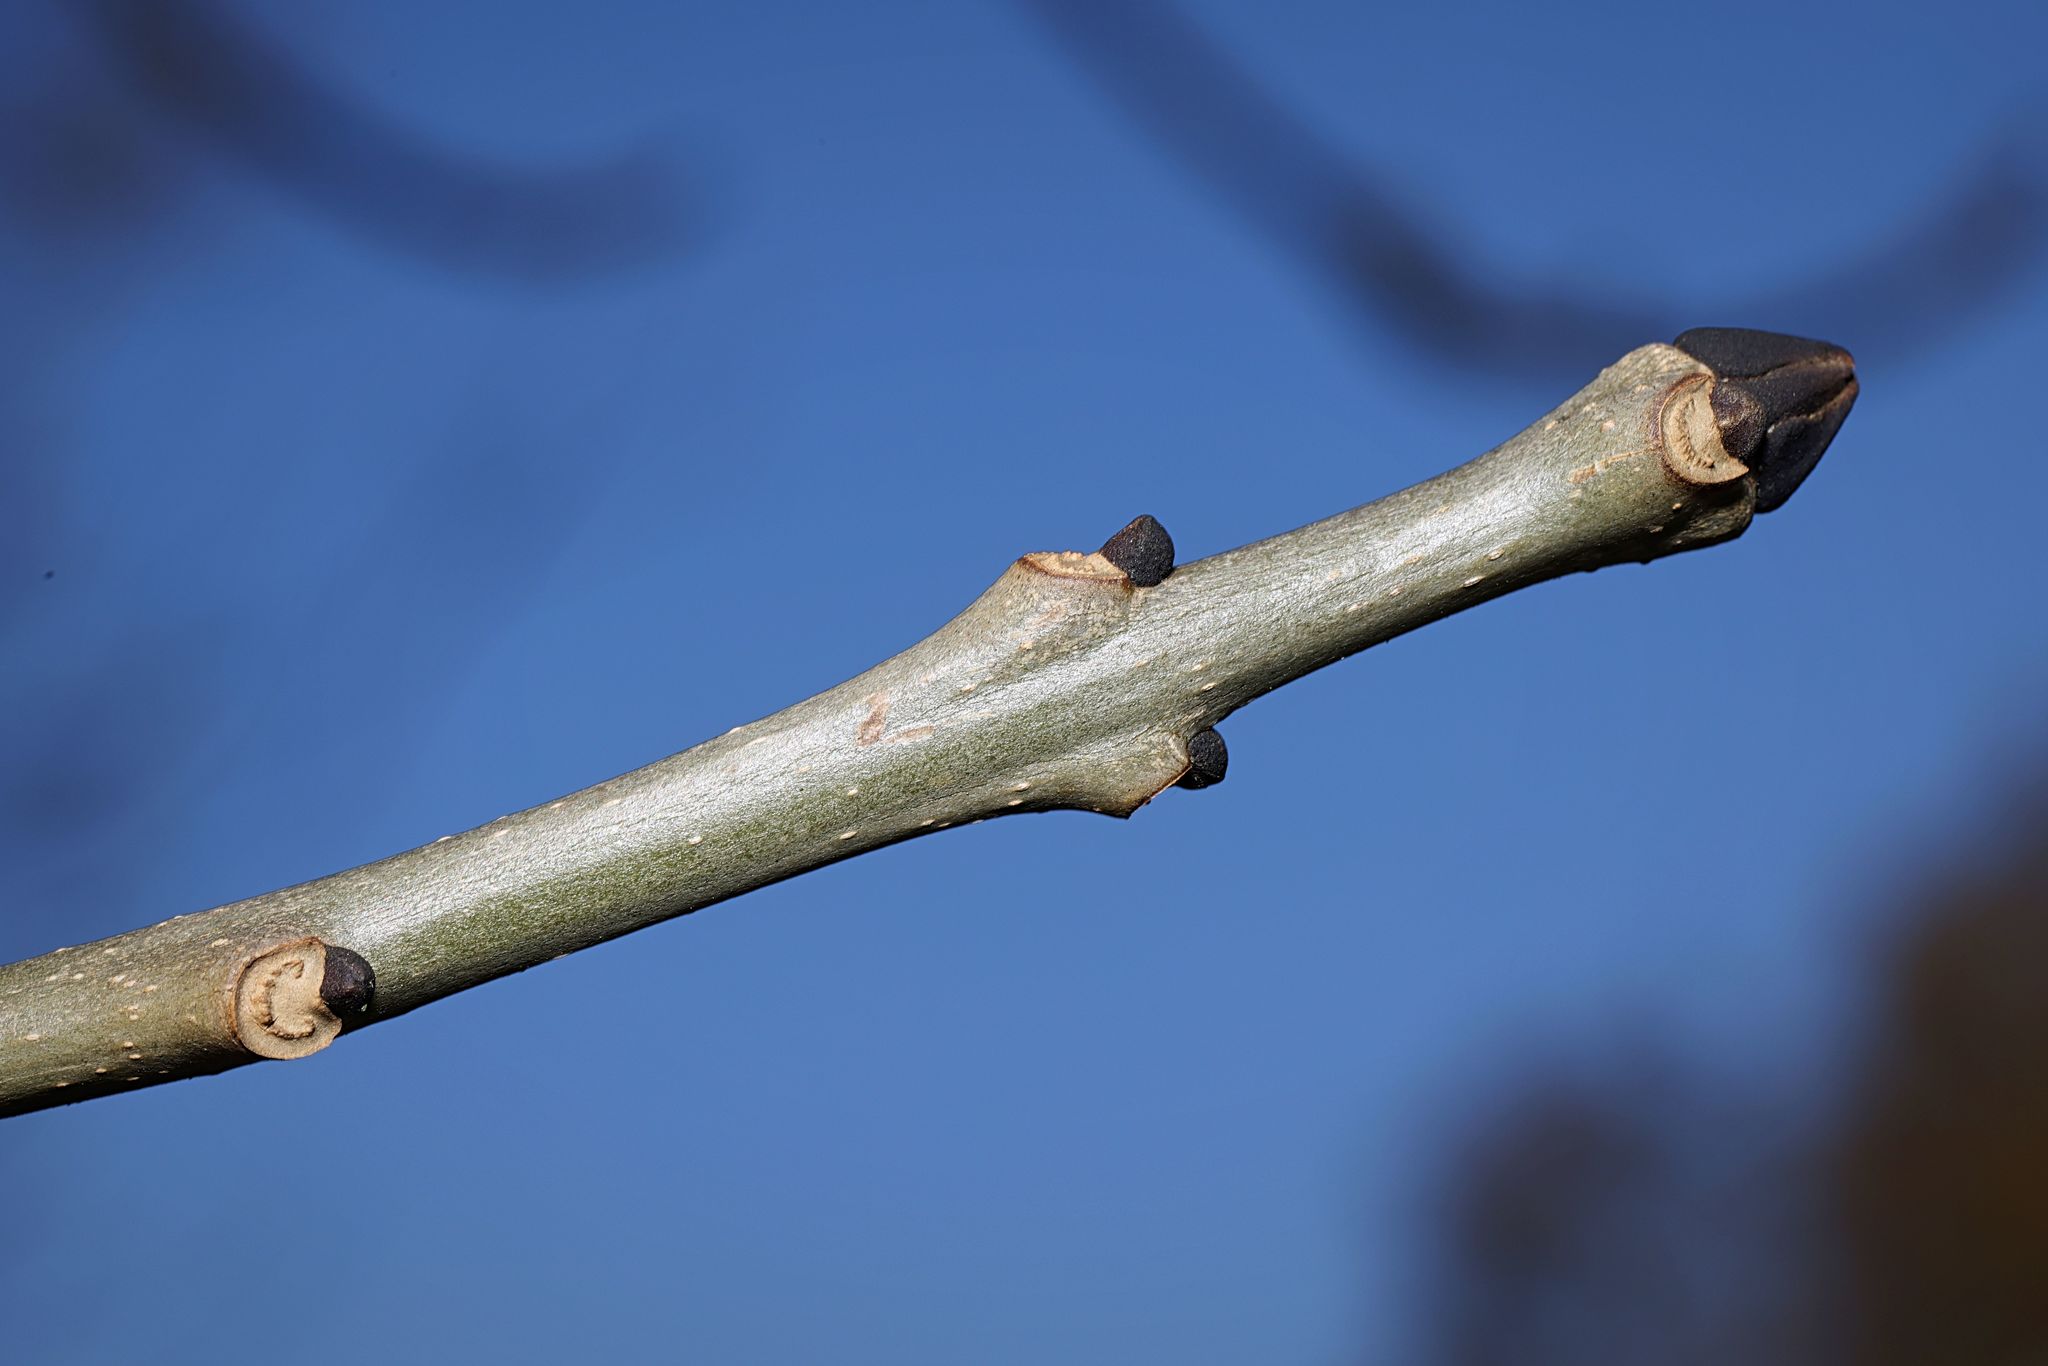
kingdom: Plantae
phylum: Tracheophyta
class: Magnoliopsida
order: Lamiales
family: Oleaceae
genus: Fraxinus
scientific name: Fraxinus excelsior
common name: European ash
